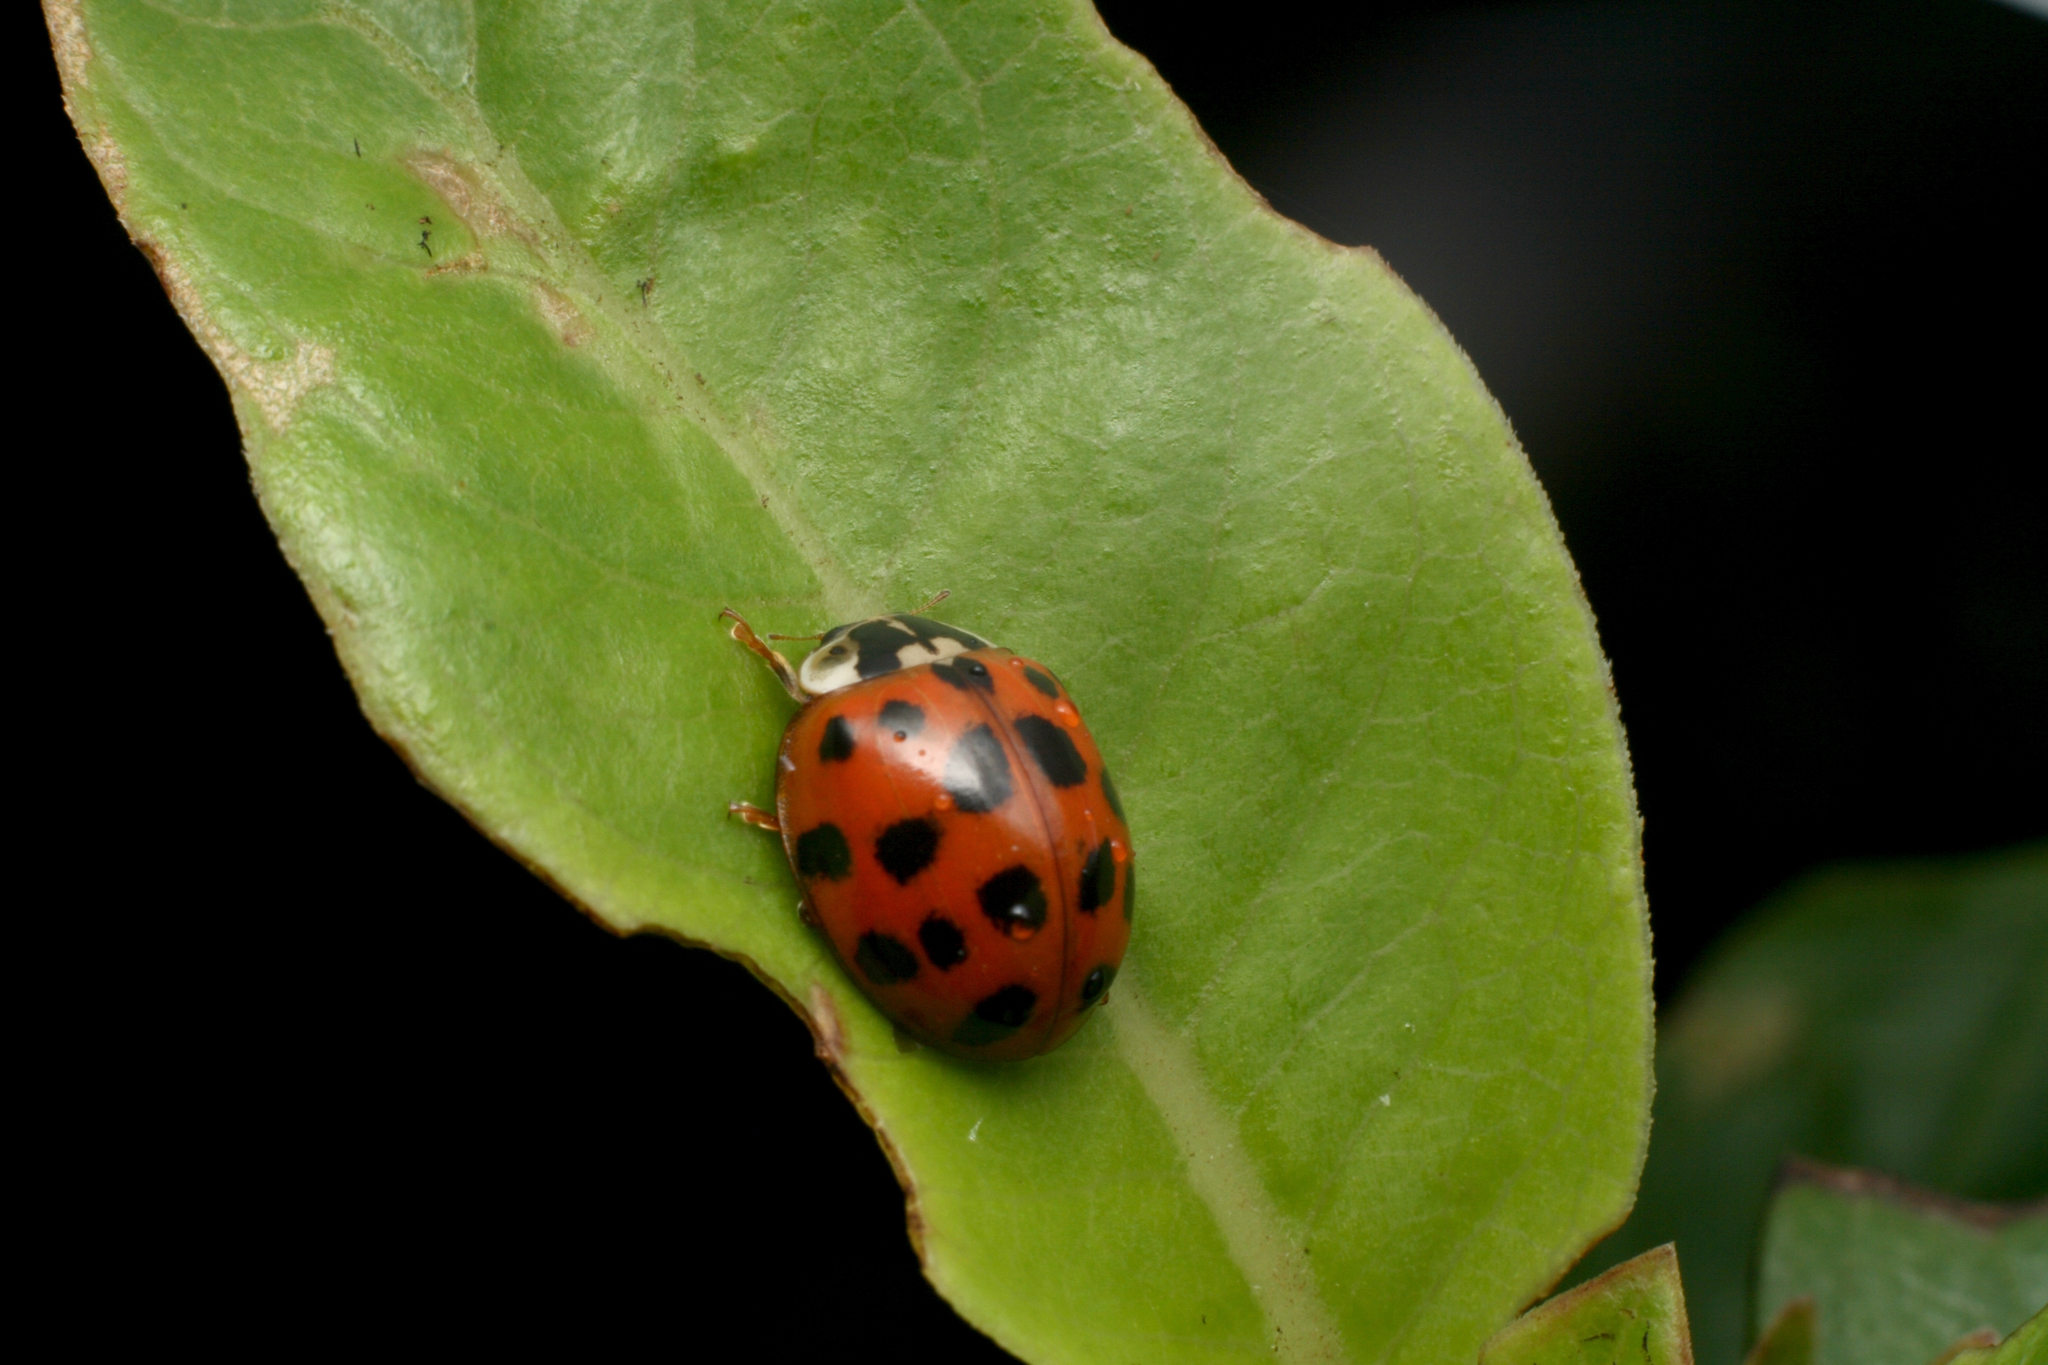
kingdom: Animalia
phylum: Arthropoda
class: Insecta
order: Coleoptera
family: Coccinellidae
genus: Harmonia
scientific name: Harmonia axyridis
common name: Harlequin ladybird
